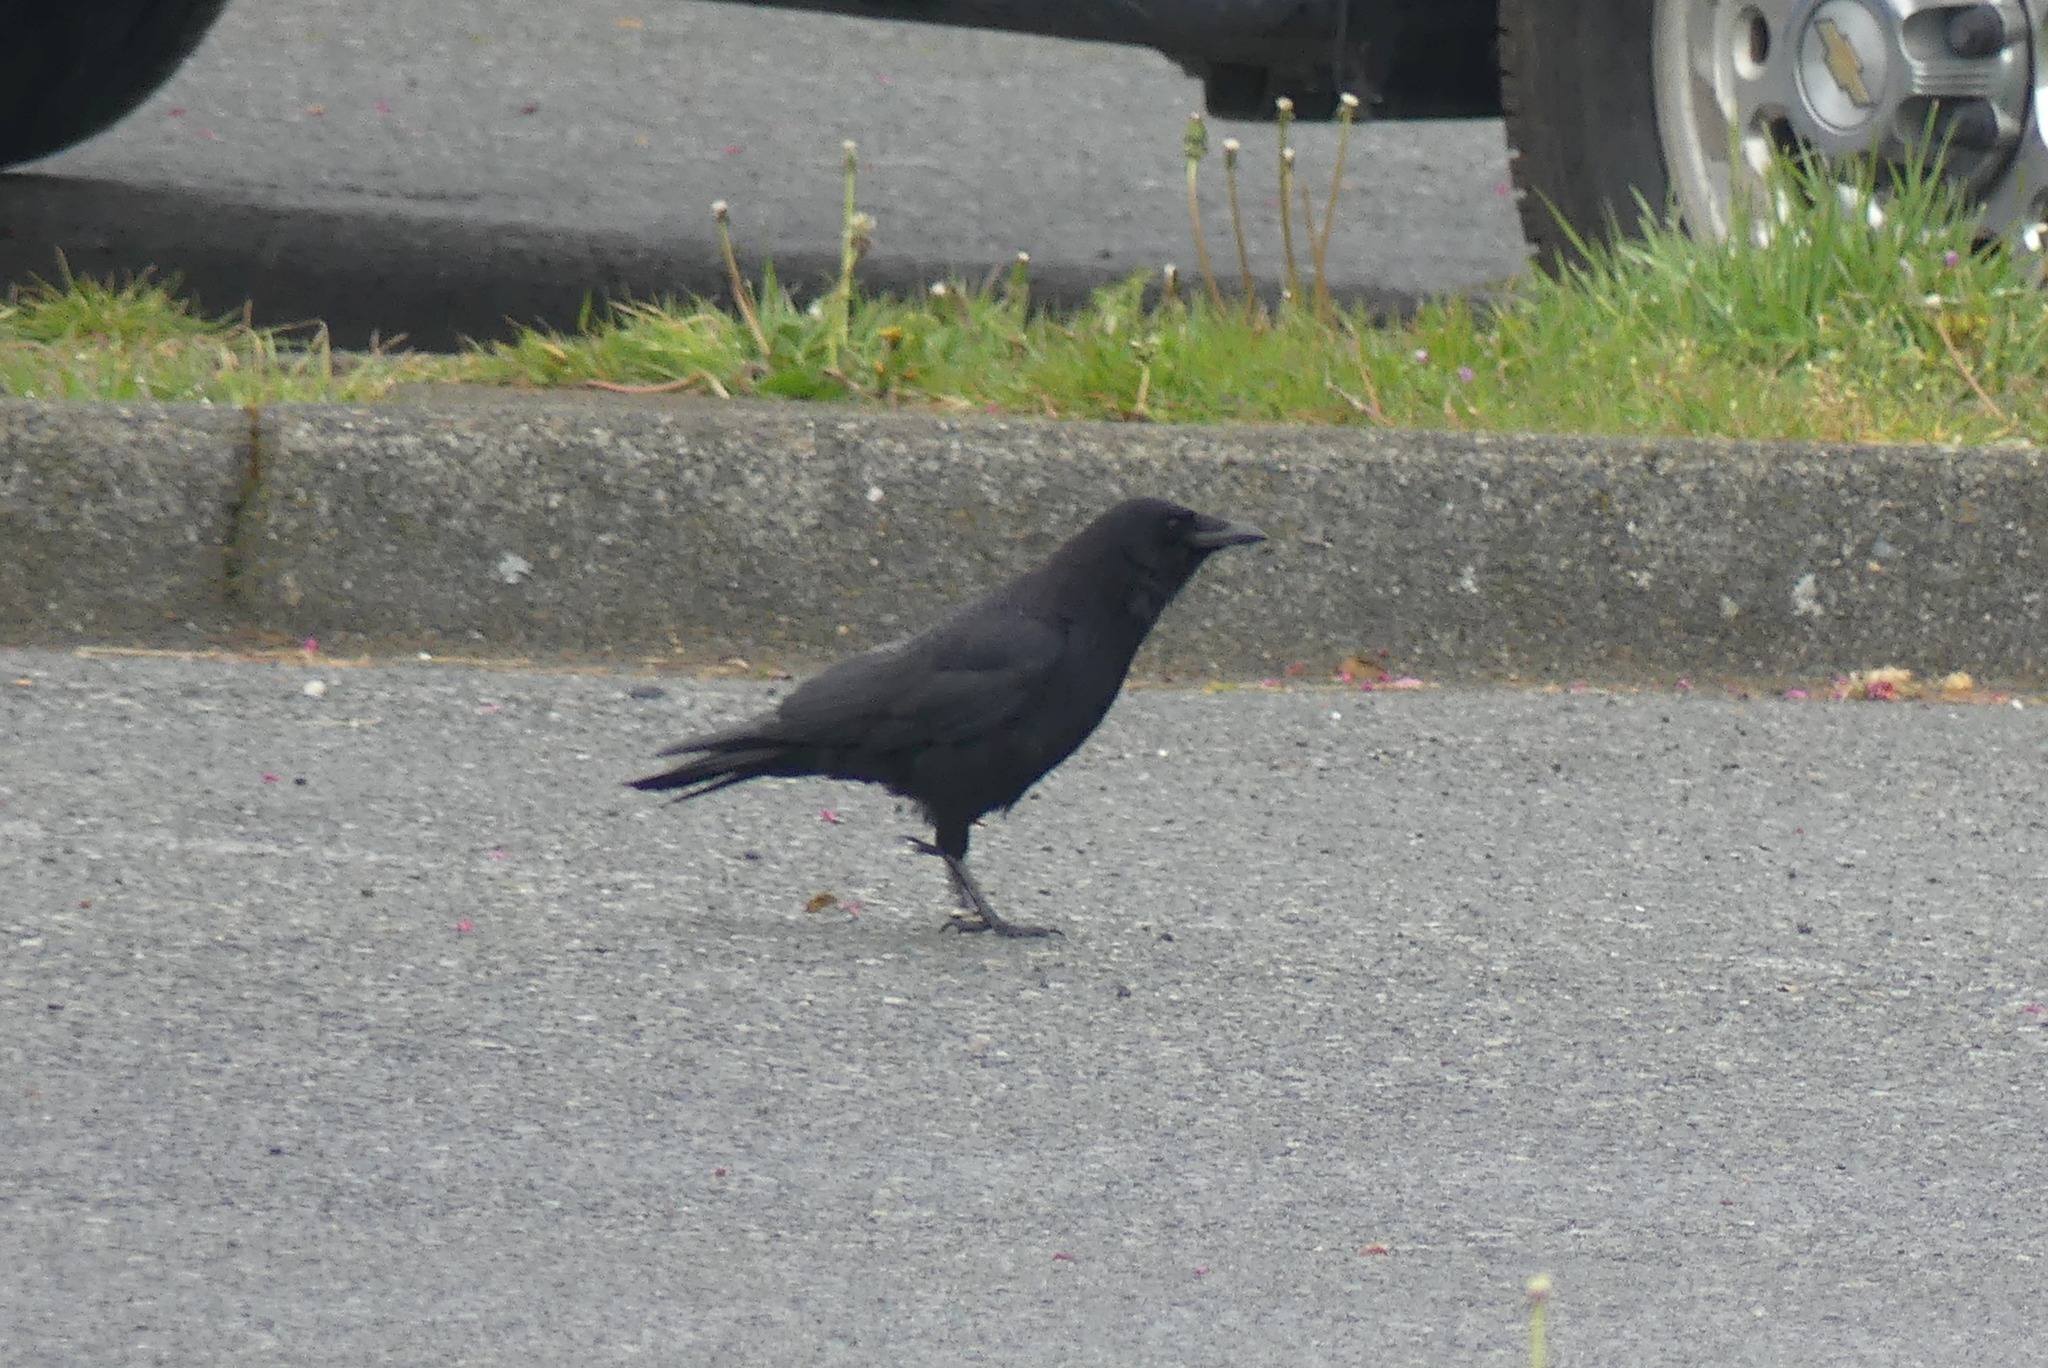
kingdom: Animalia
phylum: Chordata
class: Aves
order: Passeriformes
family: Corvidae
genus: Corvus
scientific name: Corvus brachyrhynchos
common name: American crow
